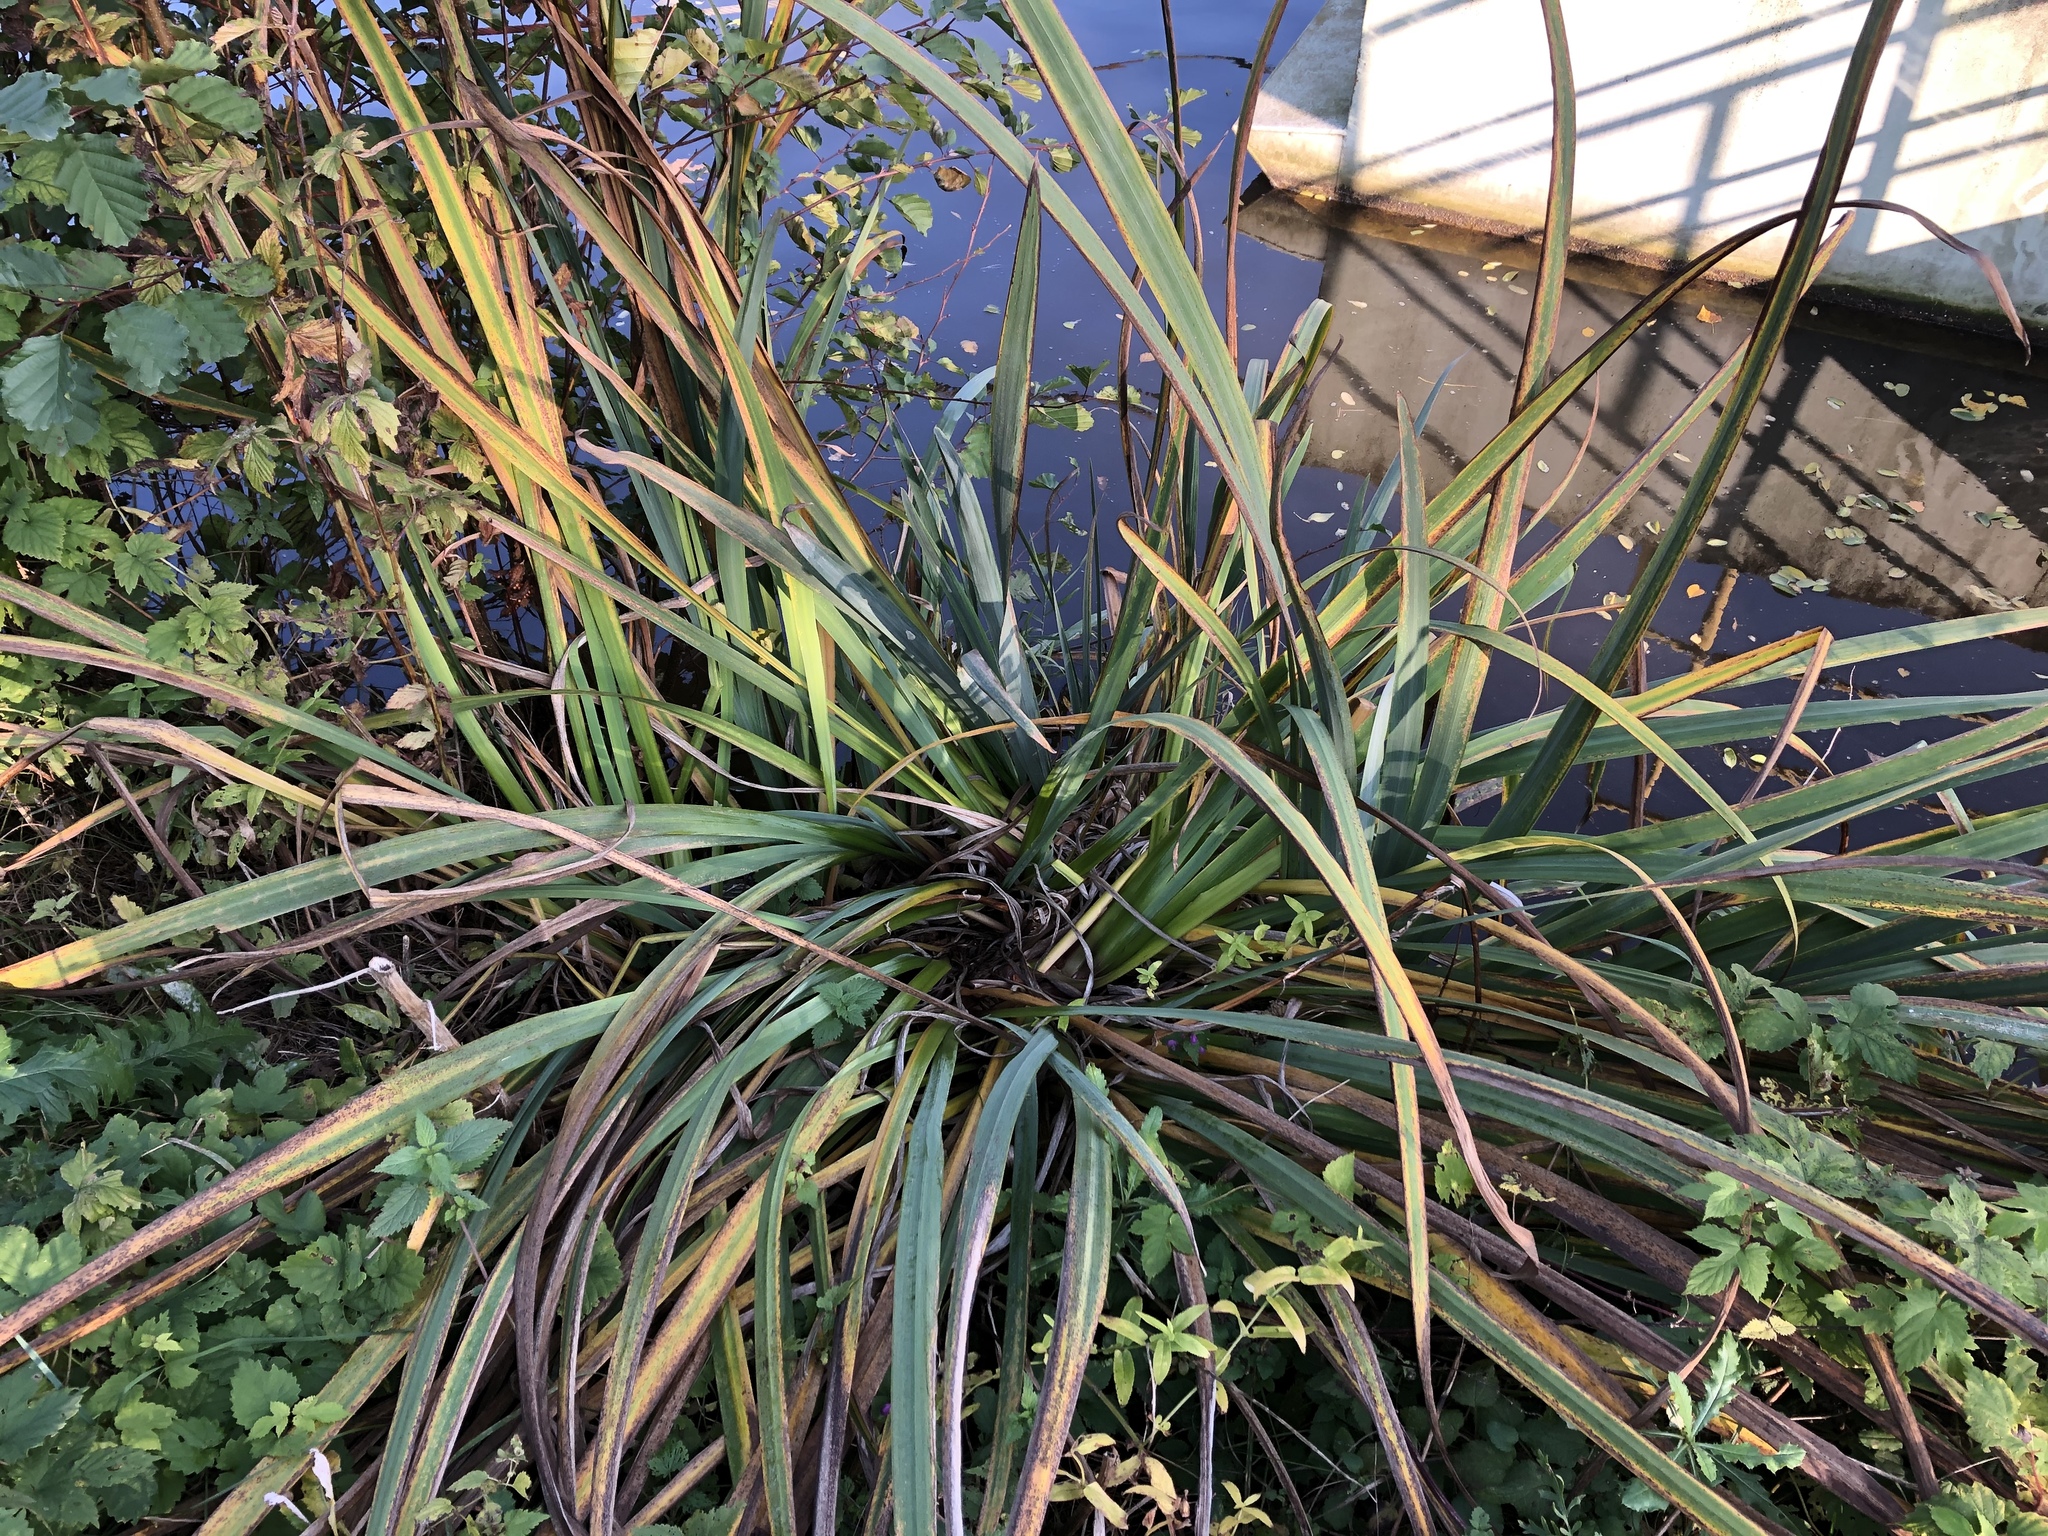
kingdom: Plantae
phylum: Tracheophyta
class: Liliopsida
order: Asparagales
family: Iridaceae
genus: Iris
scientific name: Iris pseudacorus
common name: Yellow flag
